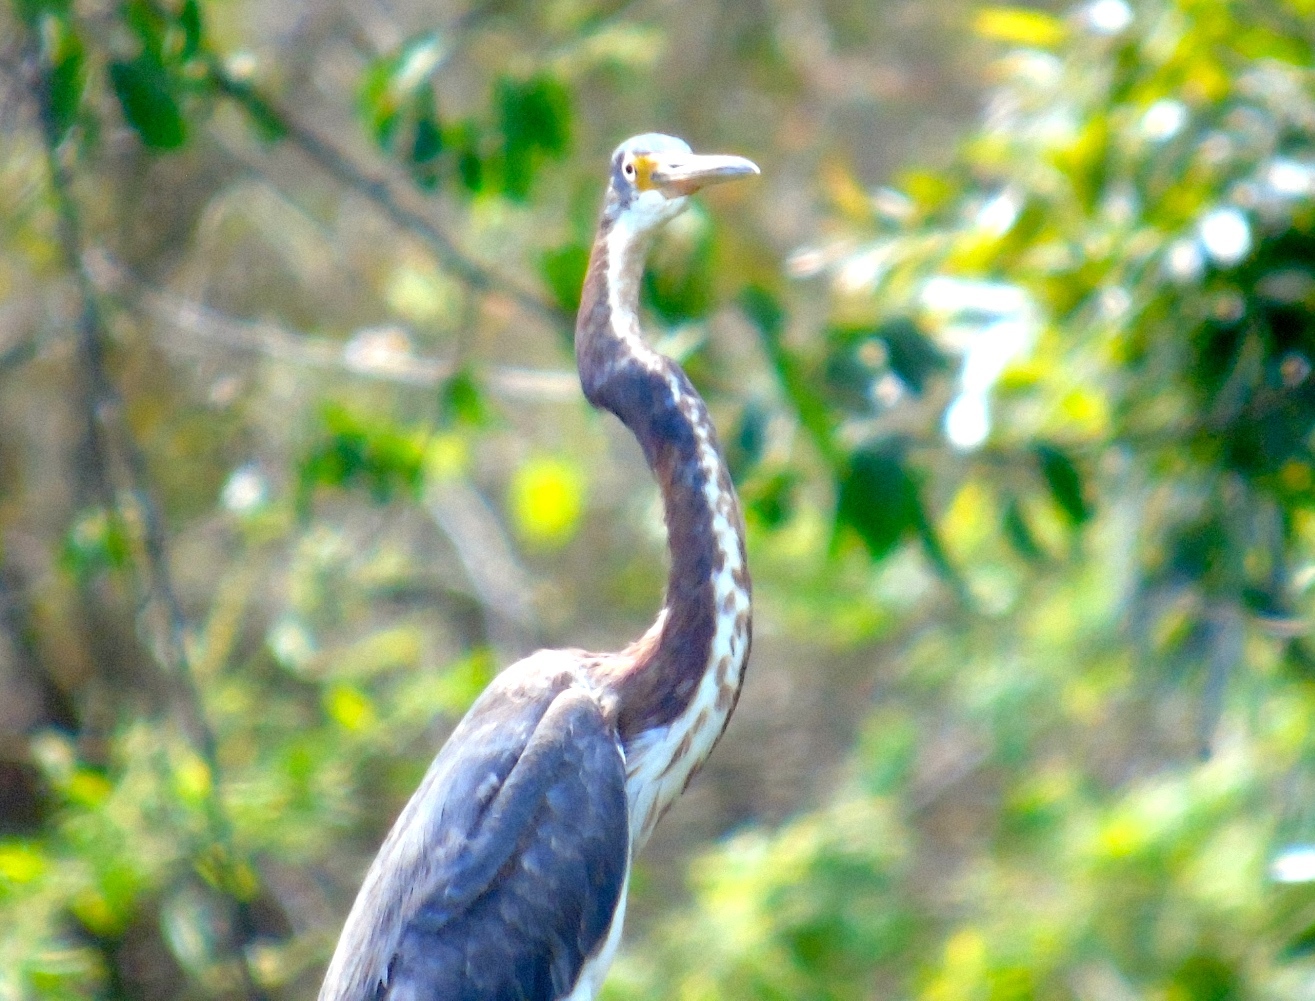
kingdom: Animalia
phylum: Chordata
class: Aves
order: Pelecaniformes
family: Ardeidae
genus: Egretta
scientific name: Egretta tricolor
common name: Tricolored heron
